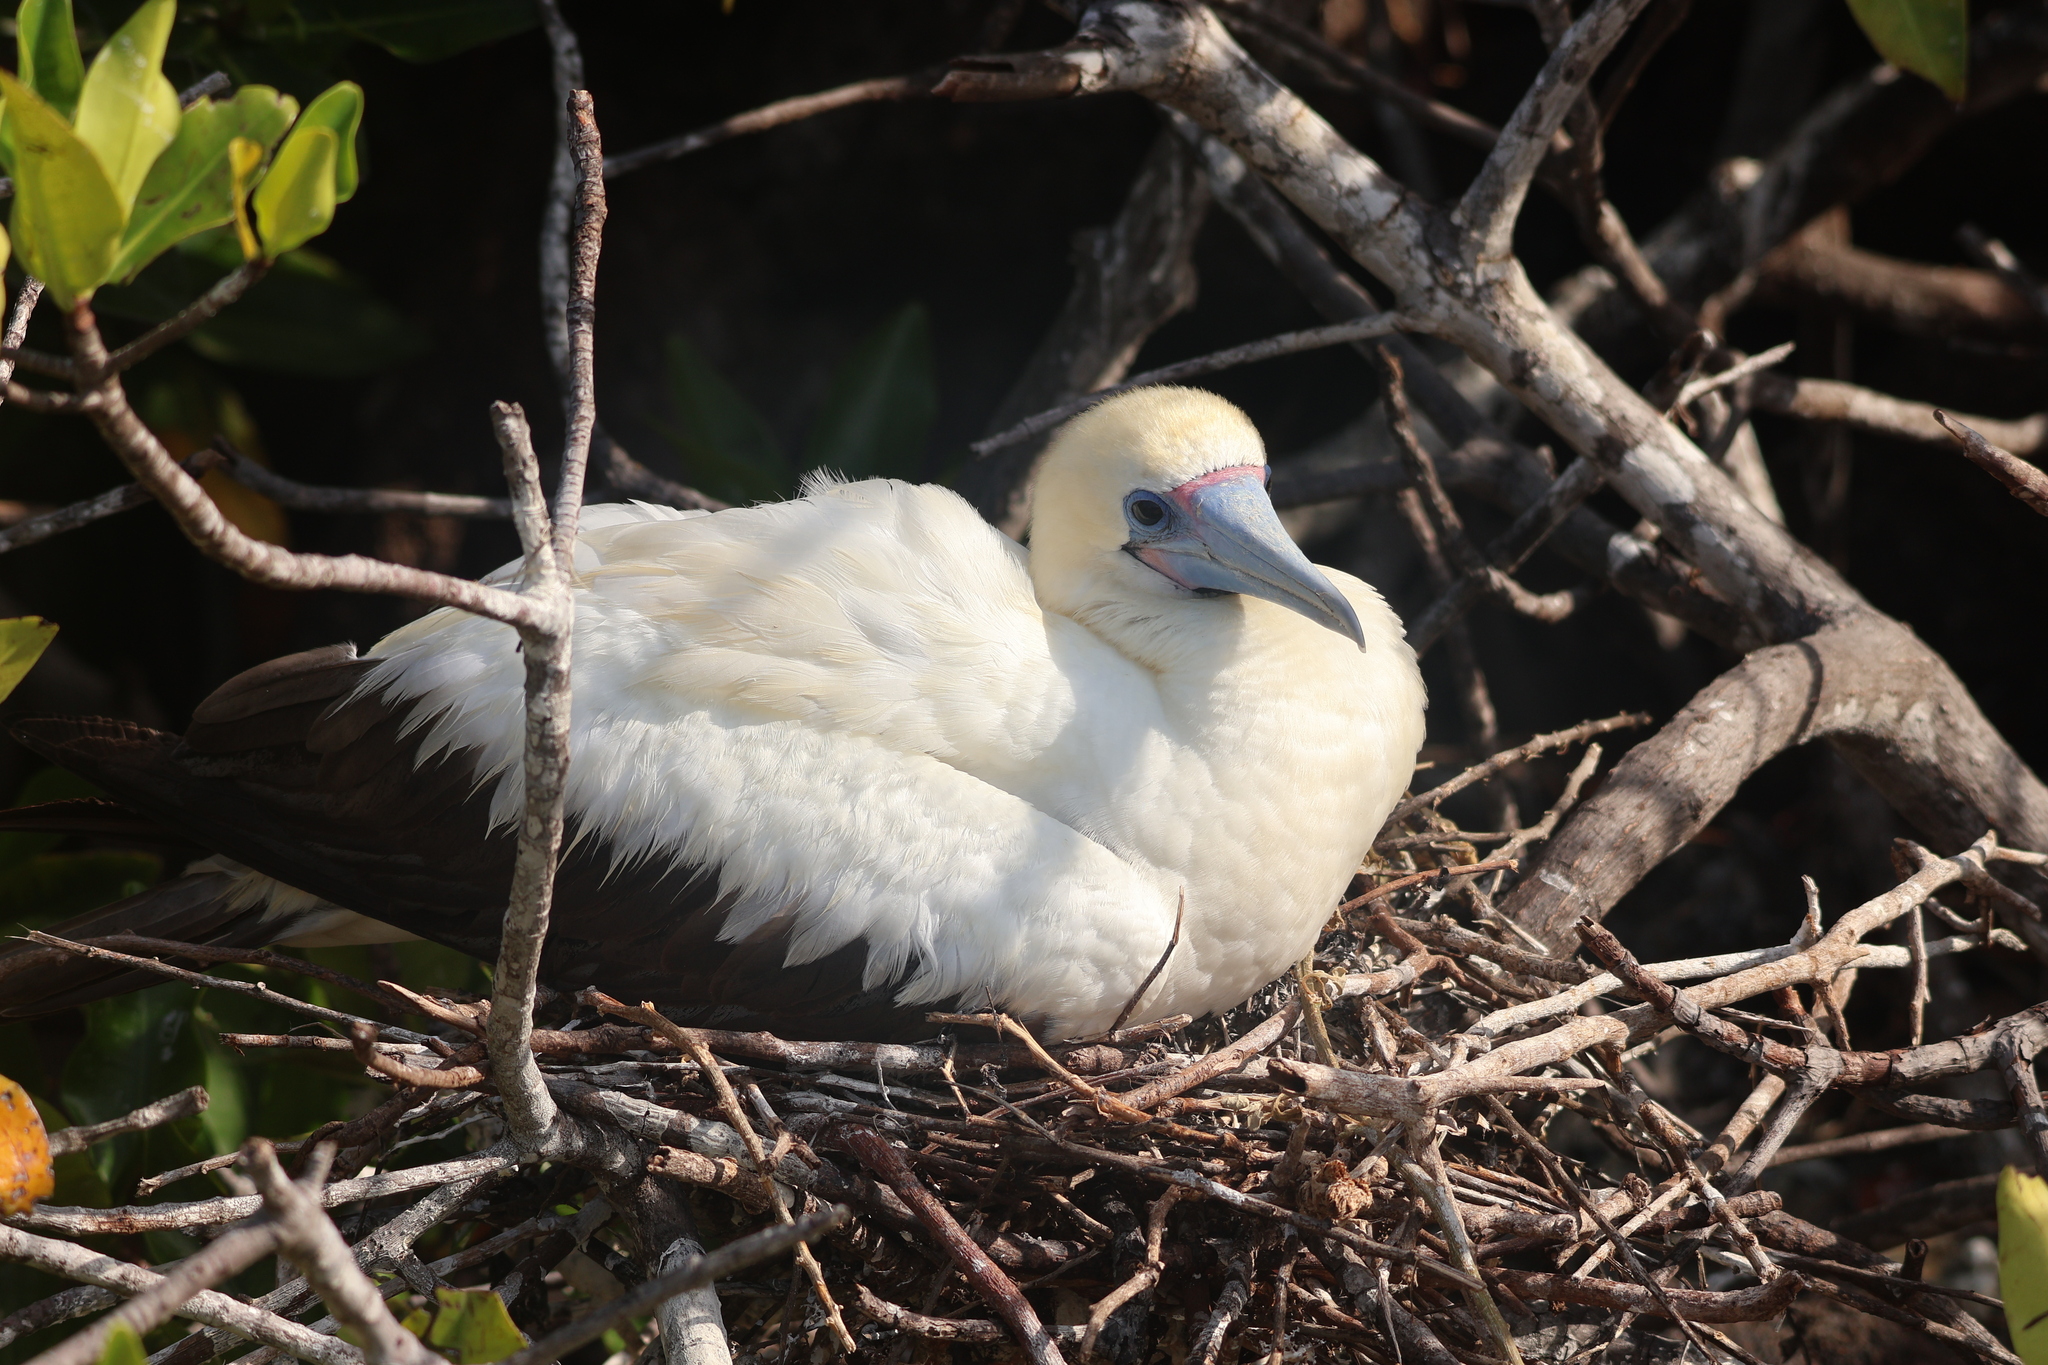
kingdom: Animalia
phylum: Chordata
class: Aves
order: Suliformes
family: Sulidae
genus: Sula
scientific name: Sula sula
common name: Red-footed booby
